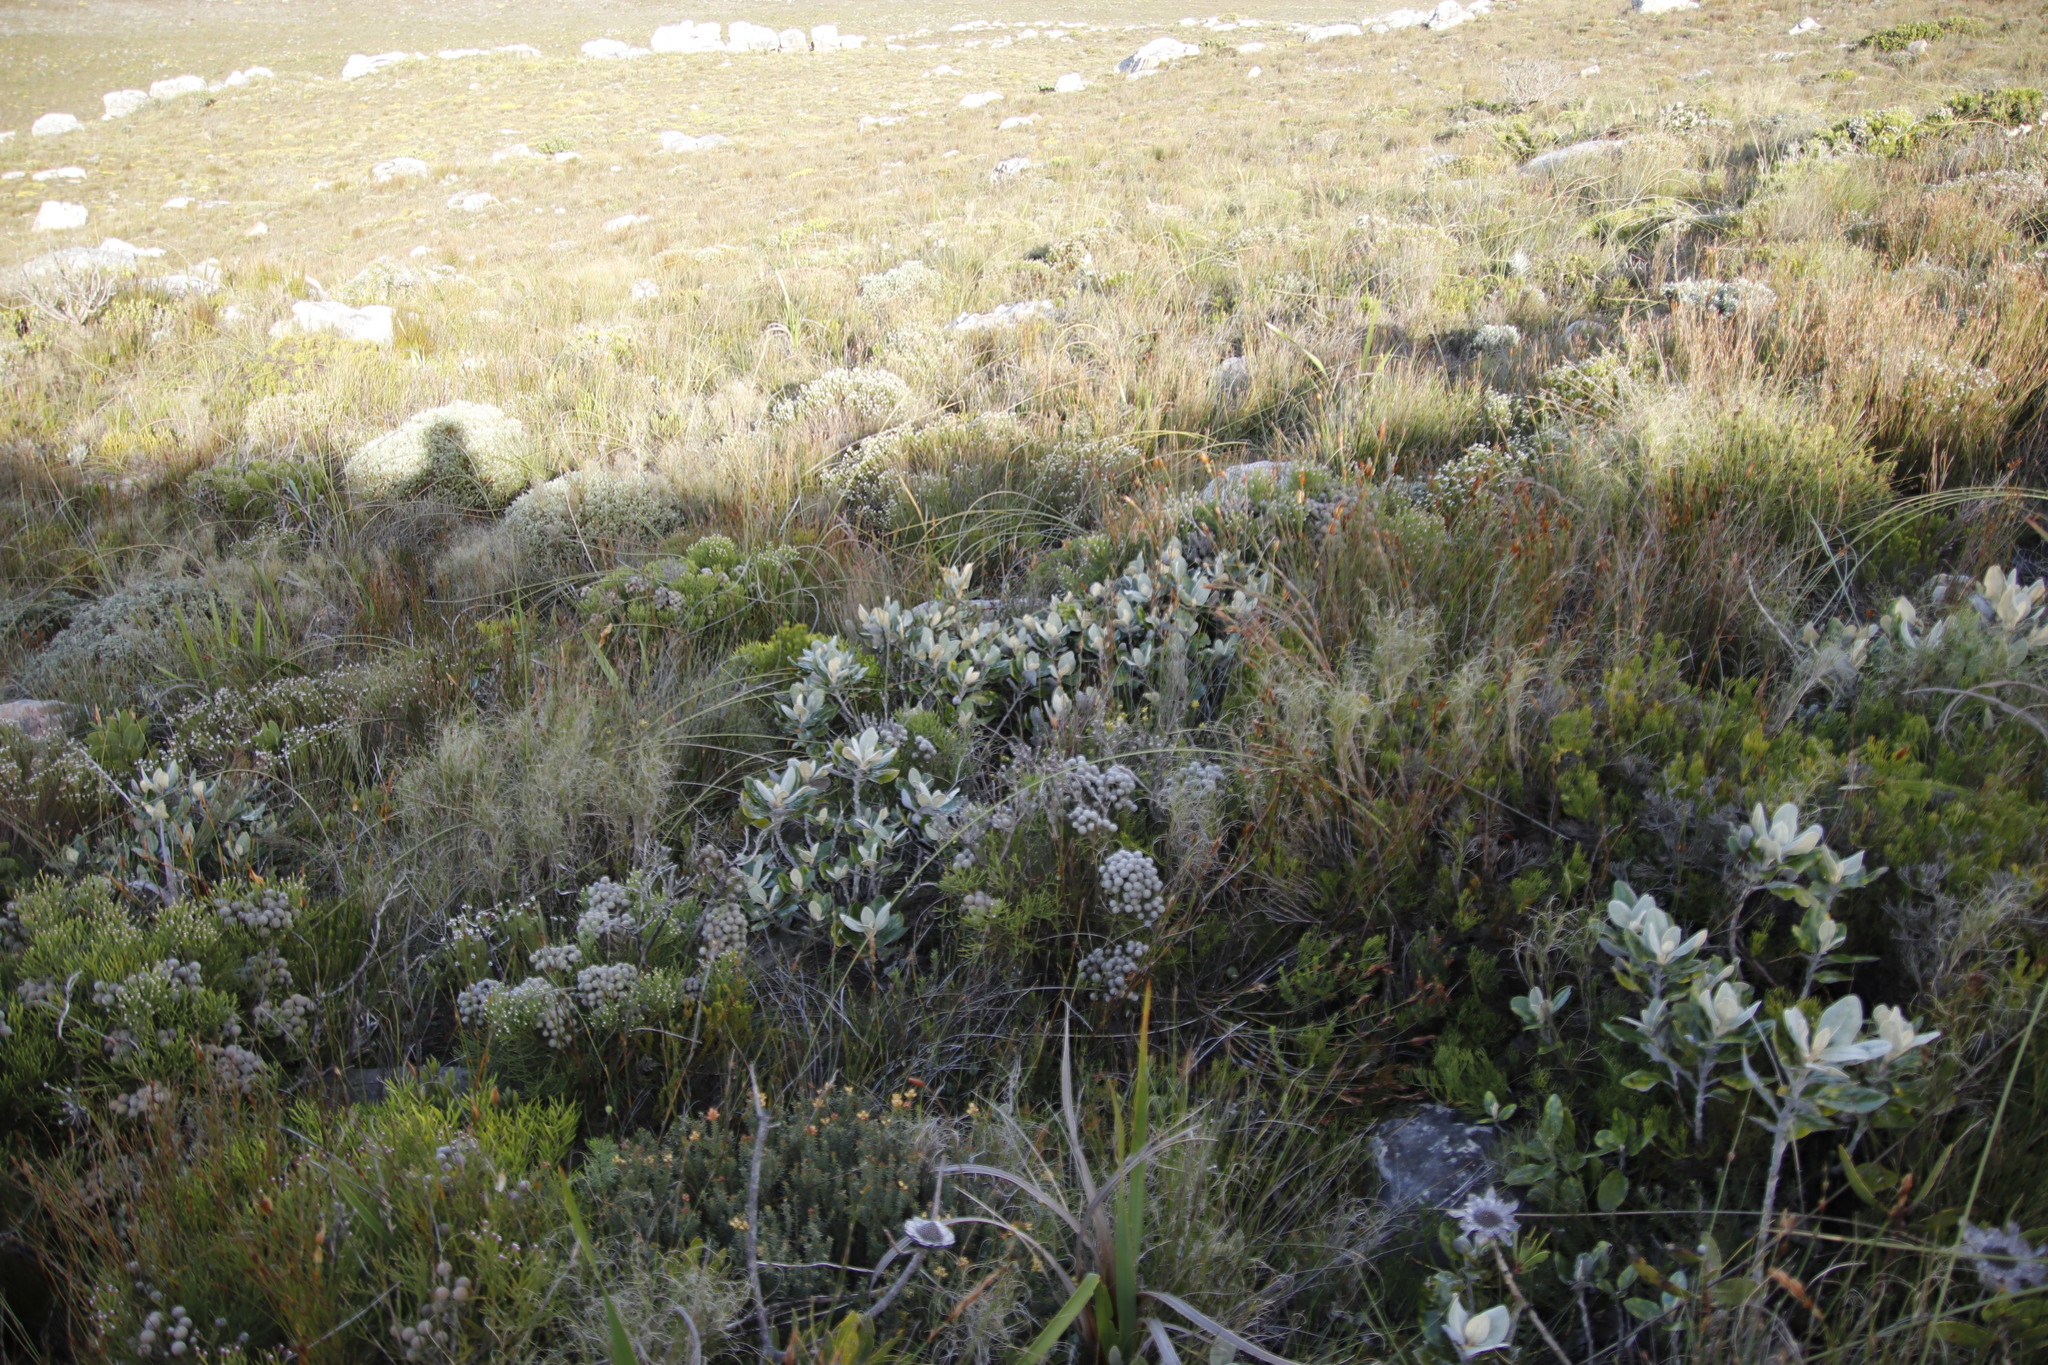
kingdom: Plantae
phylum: Tracheophyta
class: Magnoliopsida
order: Asterales
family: Asteraceae
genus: Capelio
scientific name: Capelio tabularis
